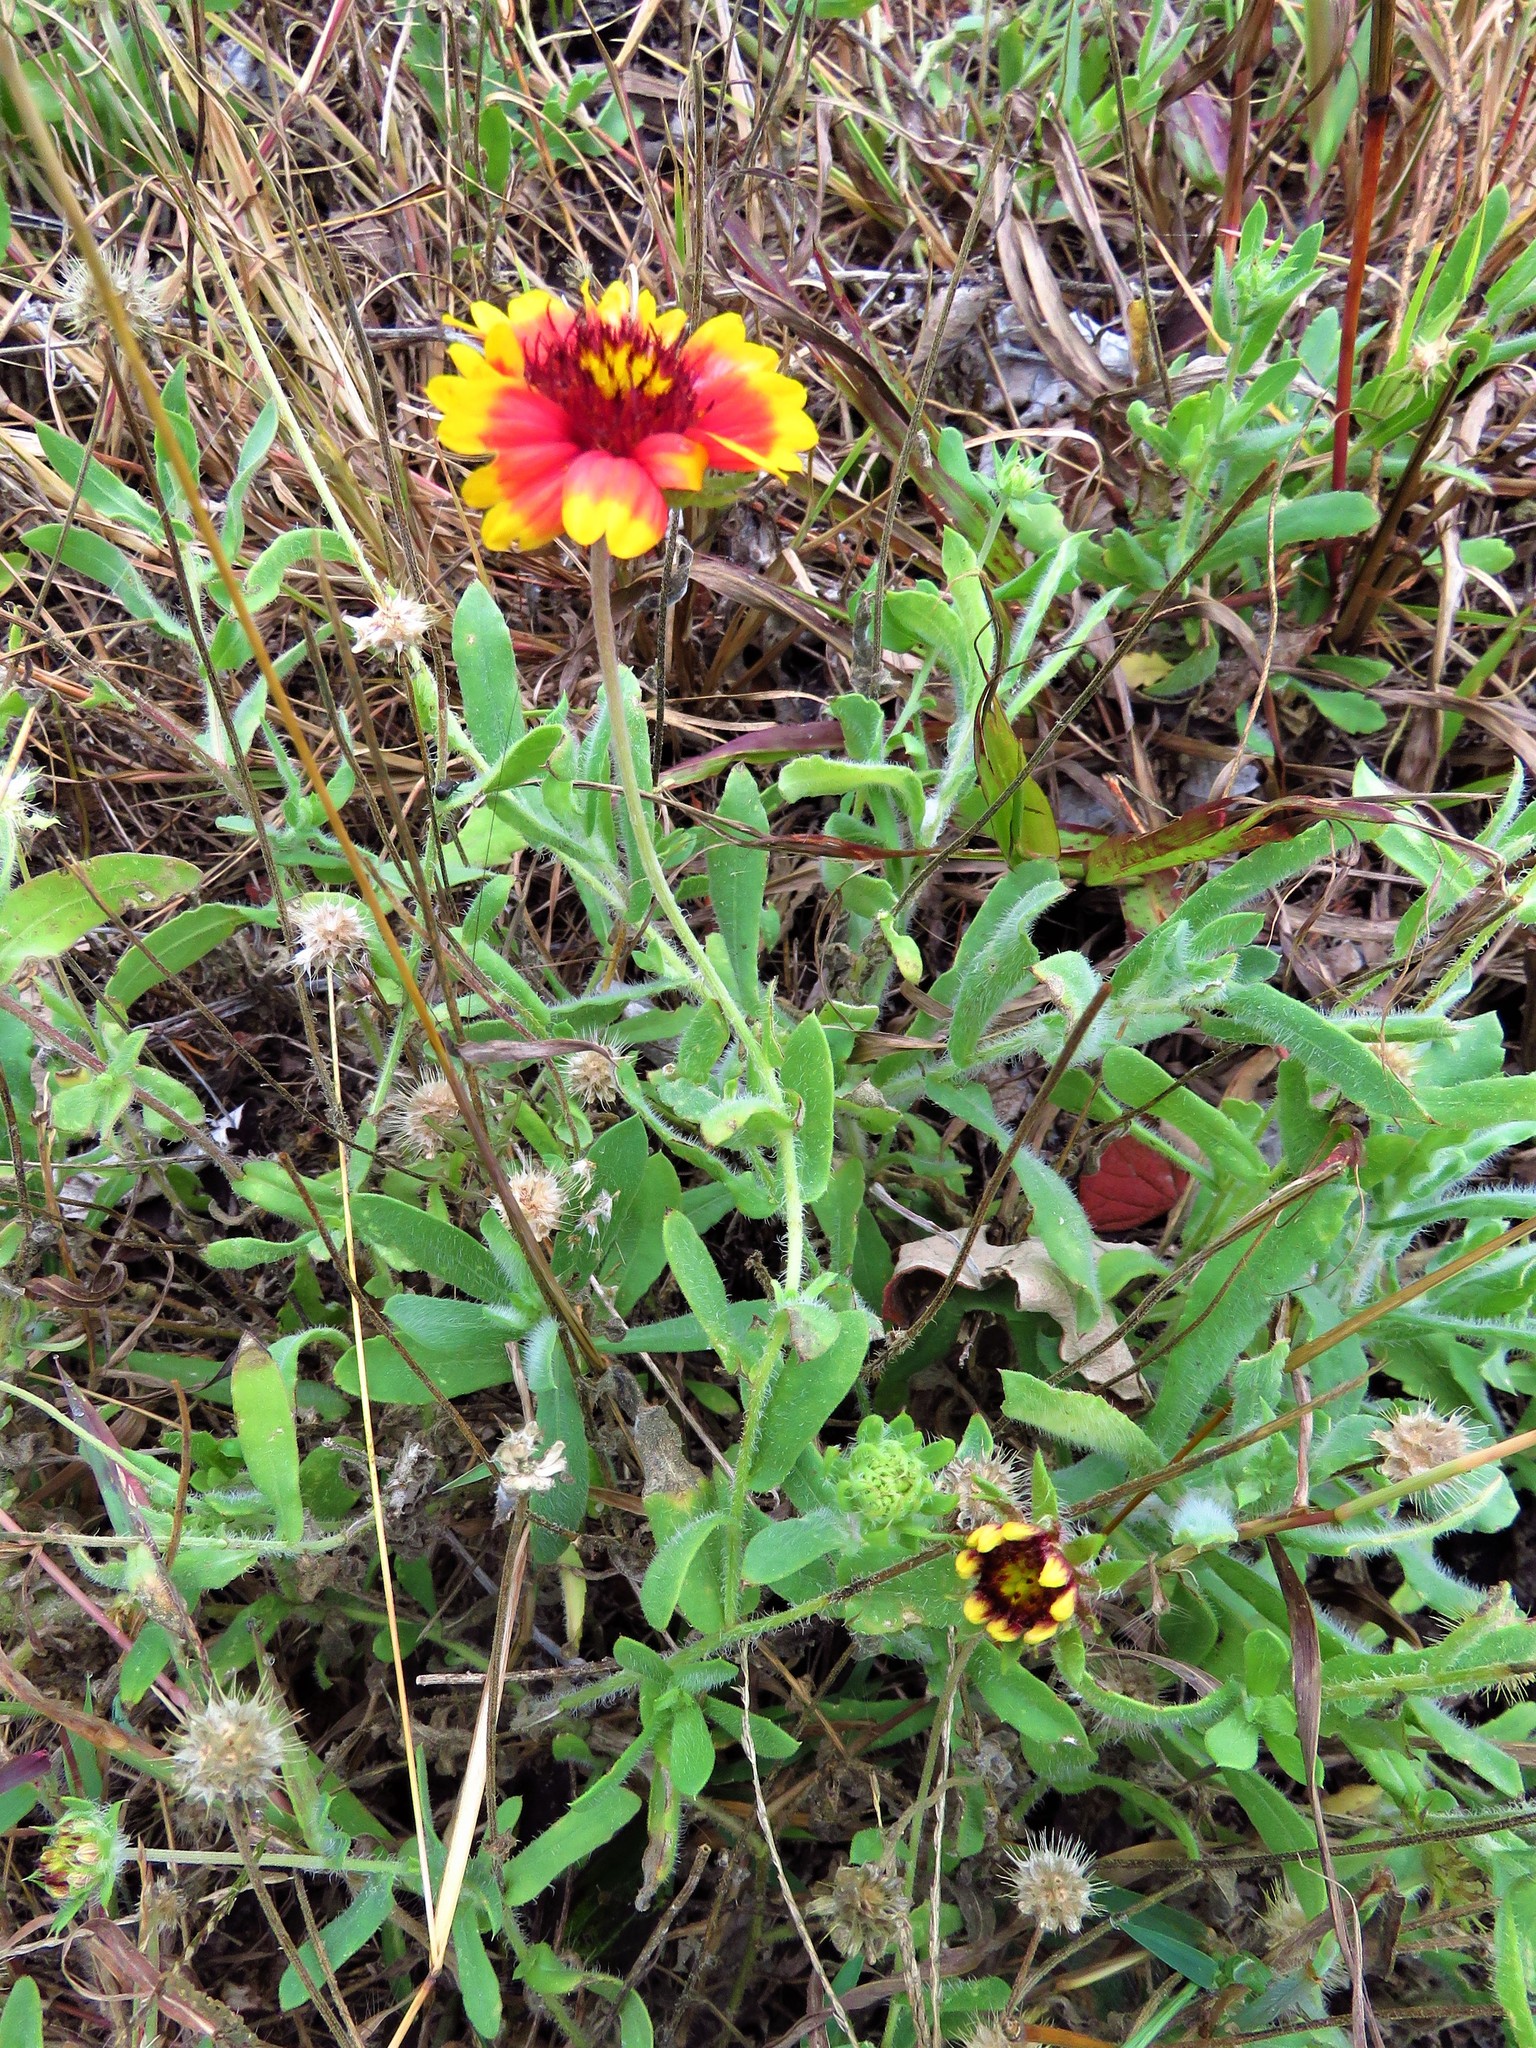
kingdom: Plantae
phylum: Tracheophyta
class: Magnoliopsida
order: Asterales
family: Asteraceae
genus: Gaillardia
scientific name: Gaillardia pulchella
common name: Firewheel
